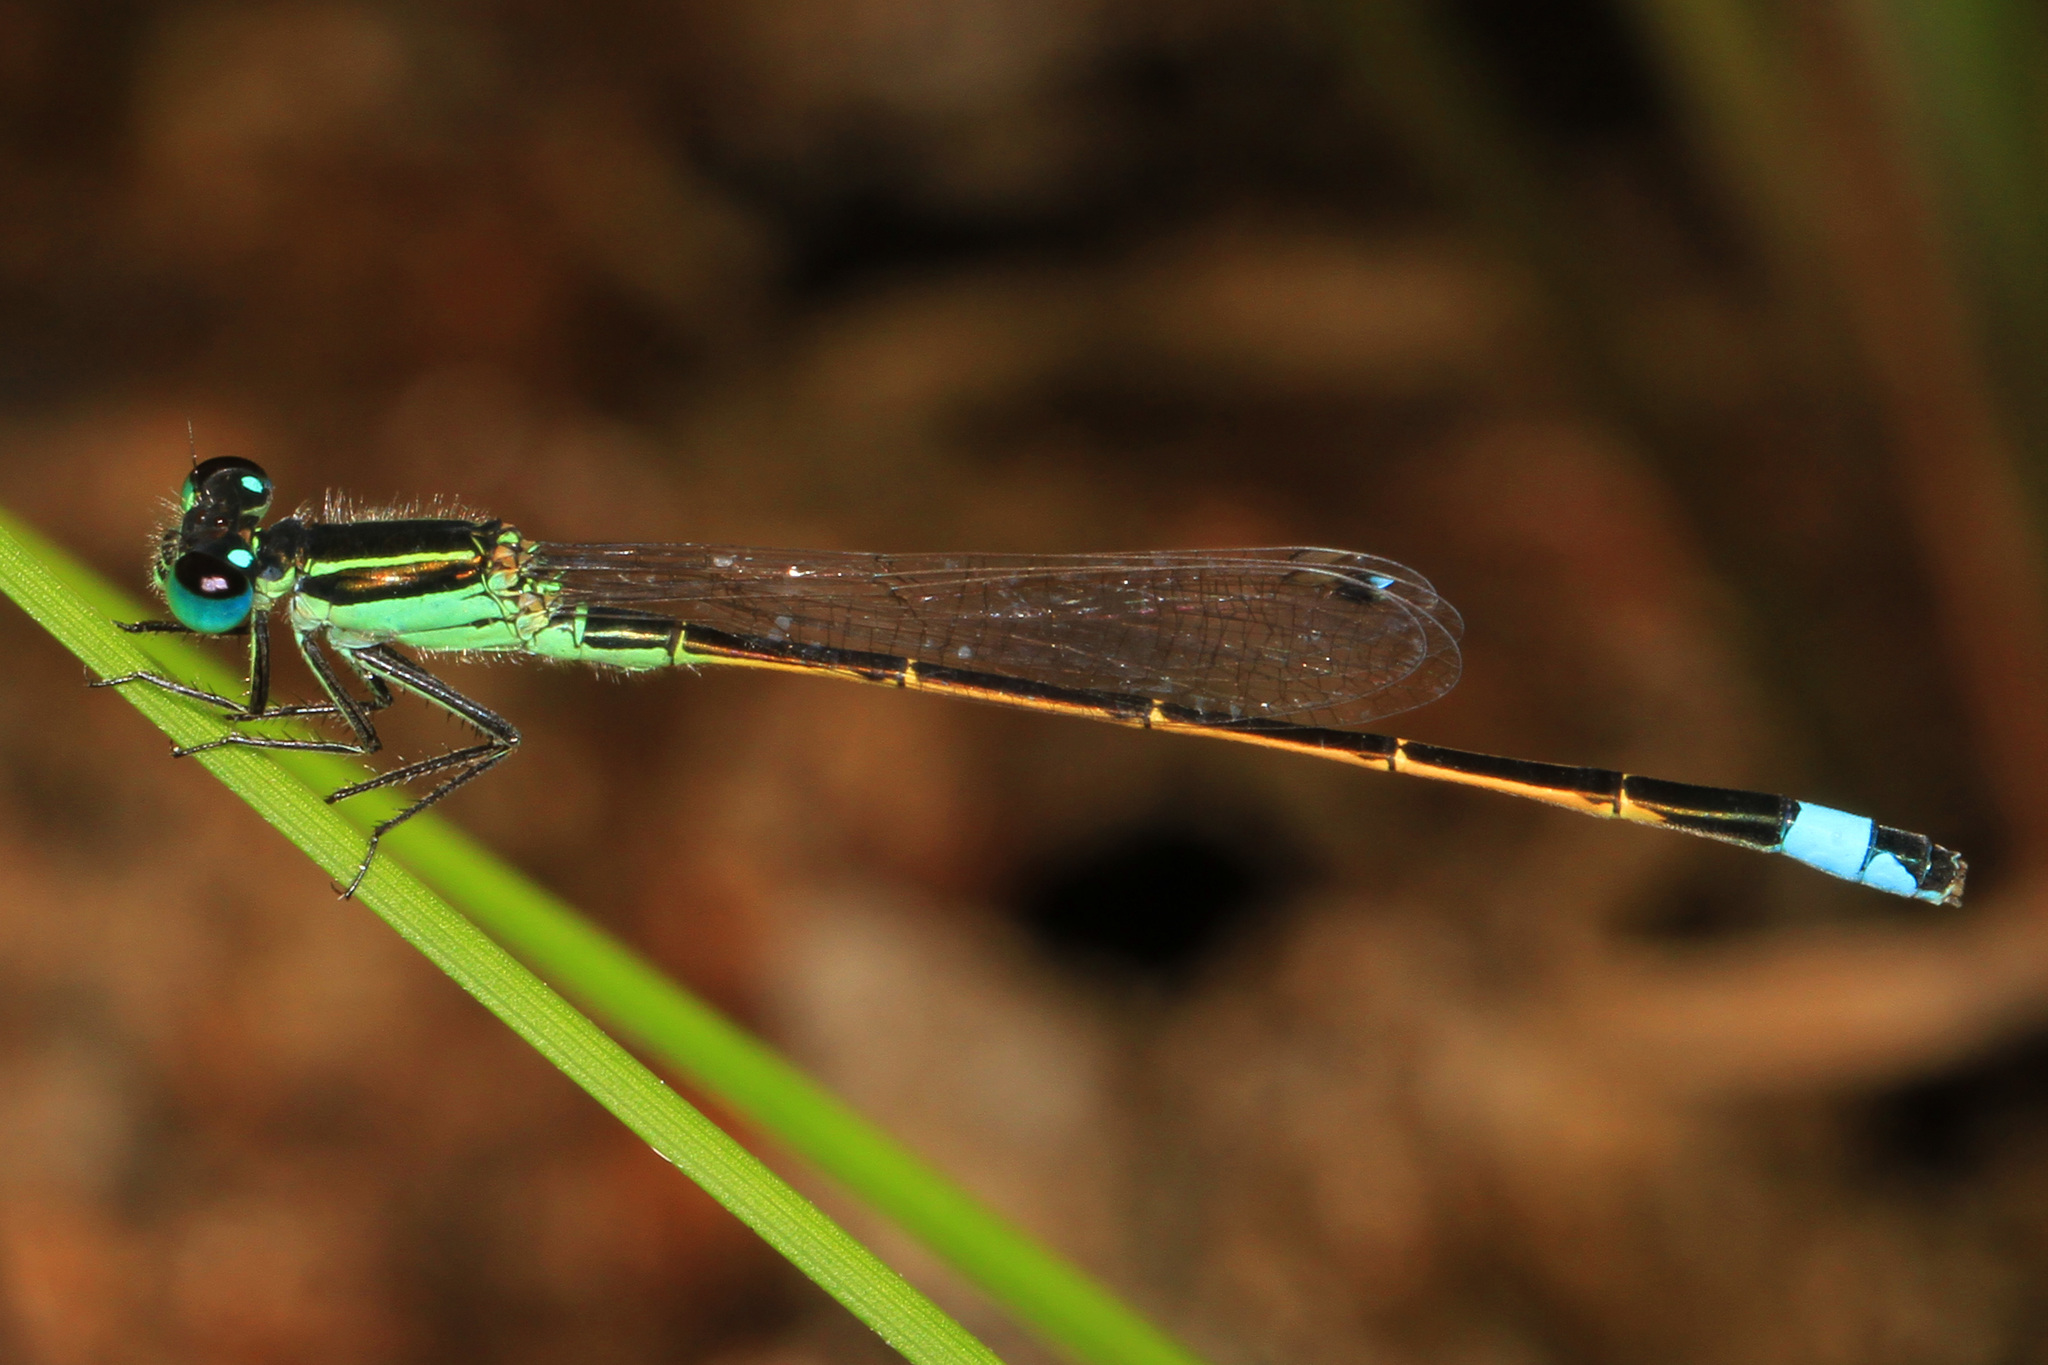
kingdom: Animalia
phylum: Arthropoda
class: Insecta
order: Odonata
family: Coenagrionidae
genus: Ischnura
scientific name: Ischnura ramburii
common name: Rambur's forktail
